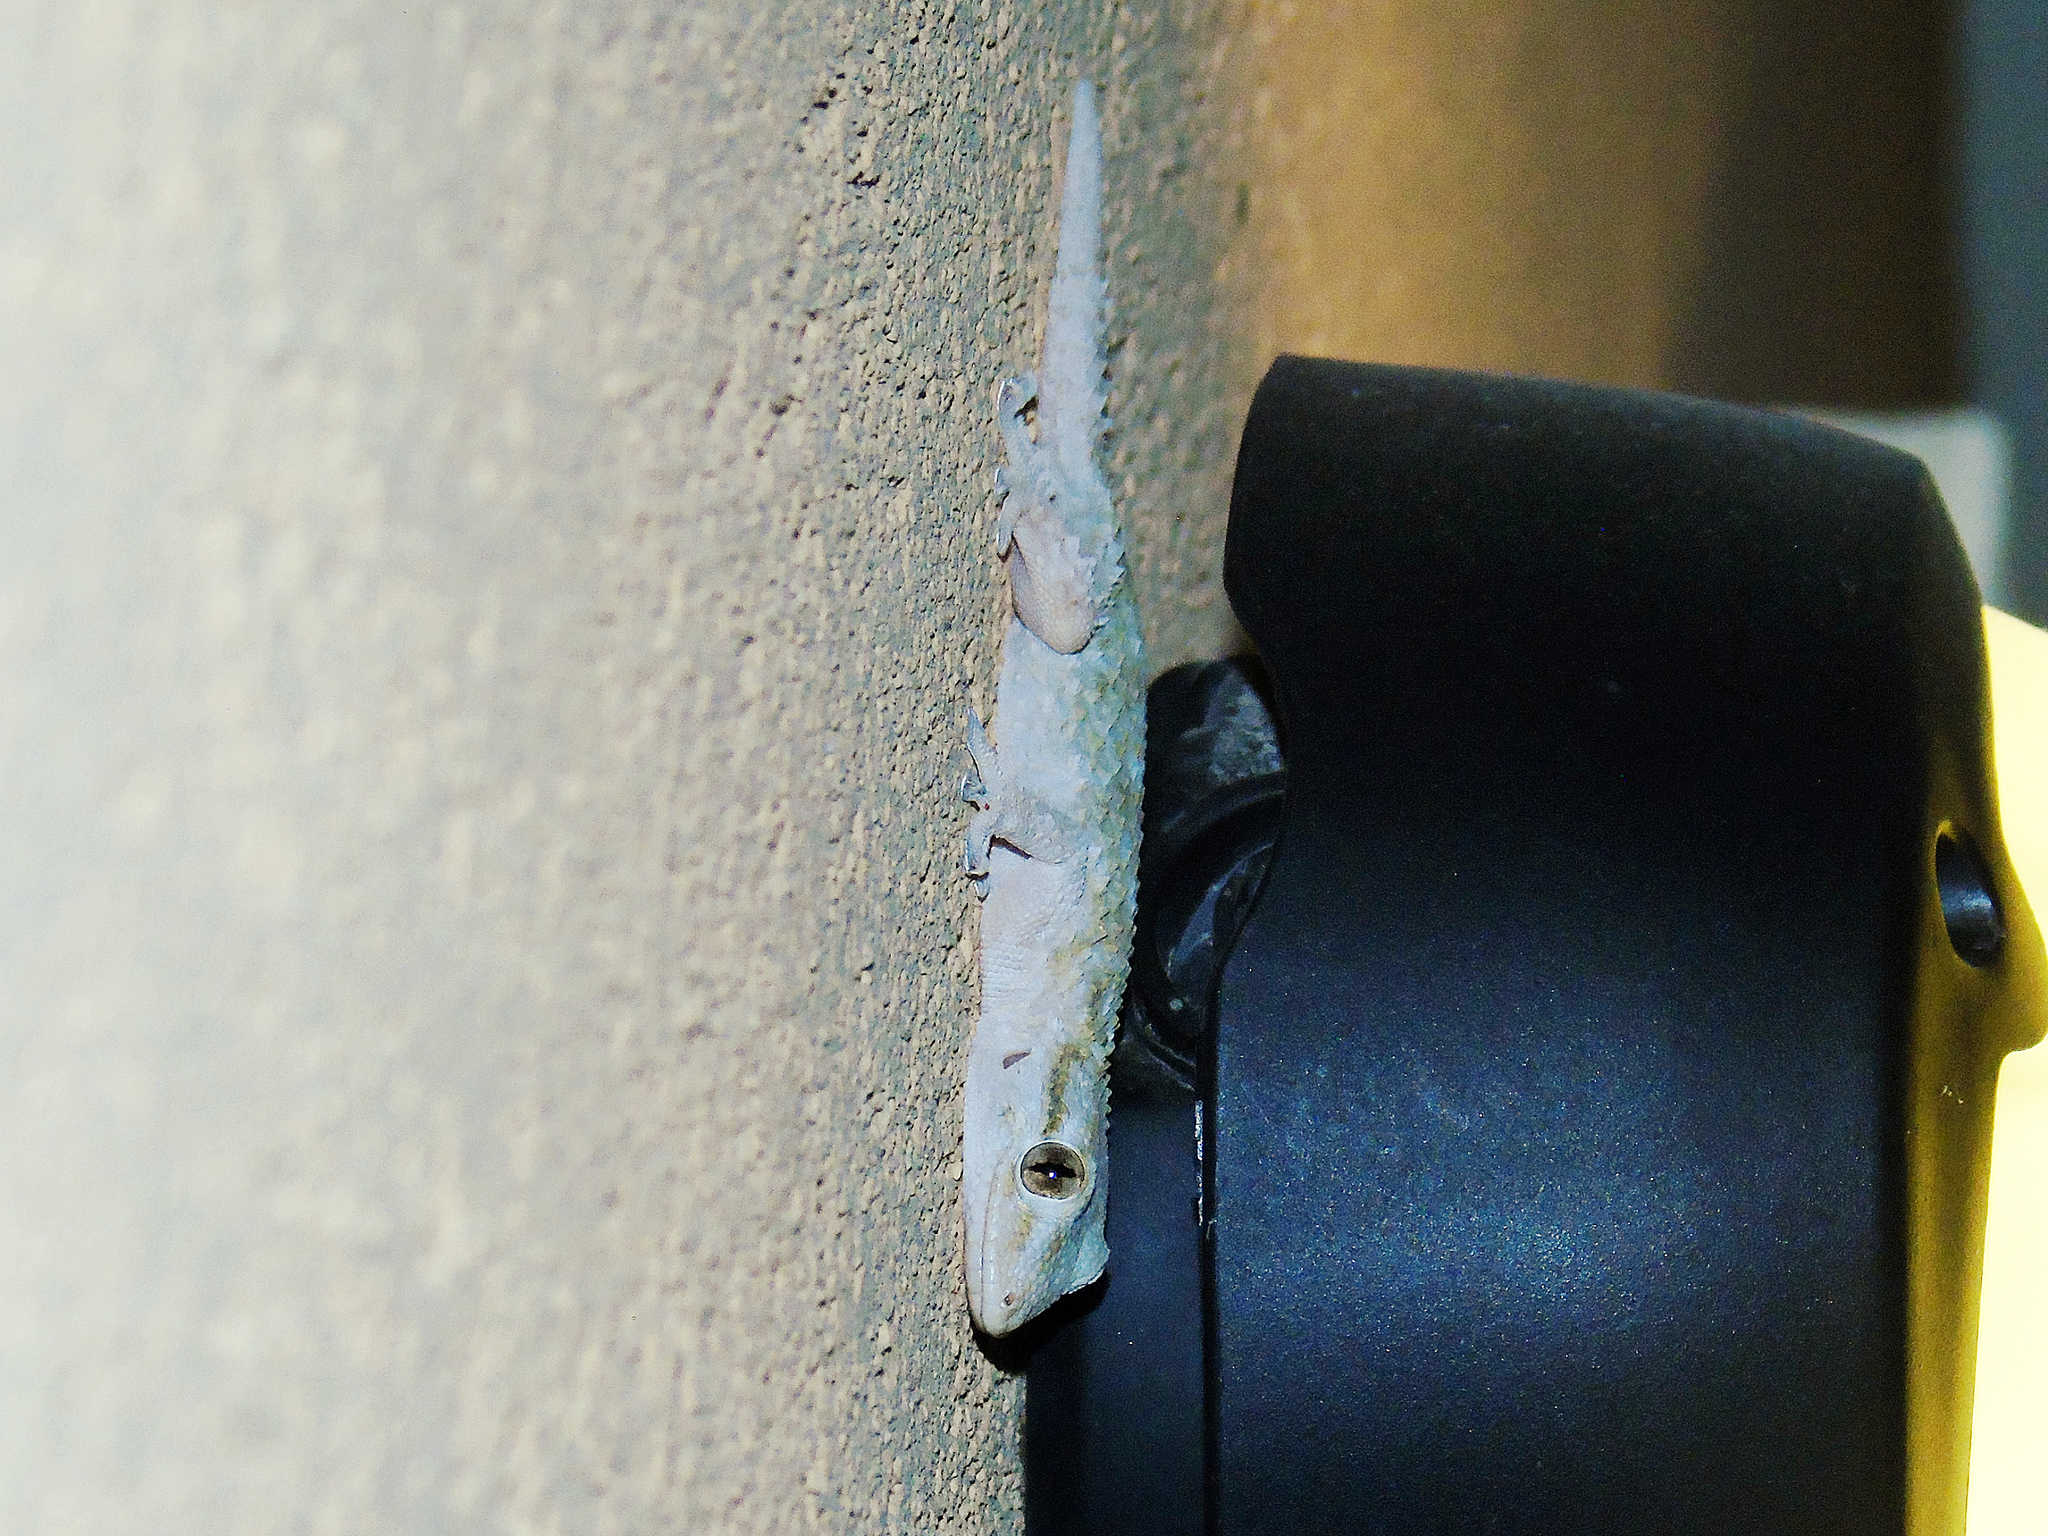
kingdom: Animalia
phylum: Chordata
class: Squamata
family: Phyllodactylidae
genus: Tarentola
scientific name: Tarentola mauritanica
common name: Moorish gecko
